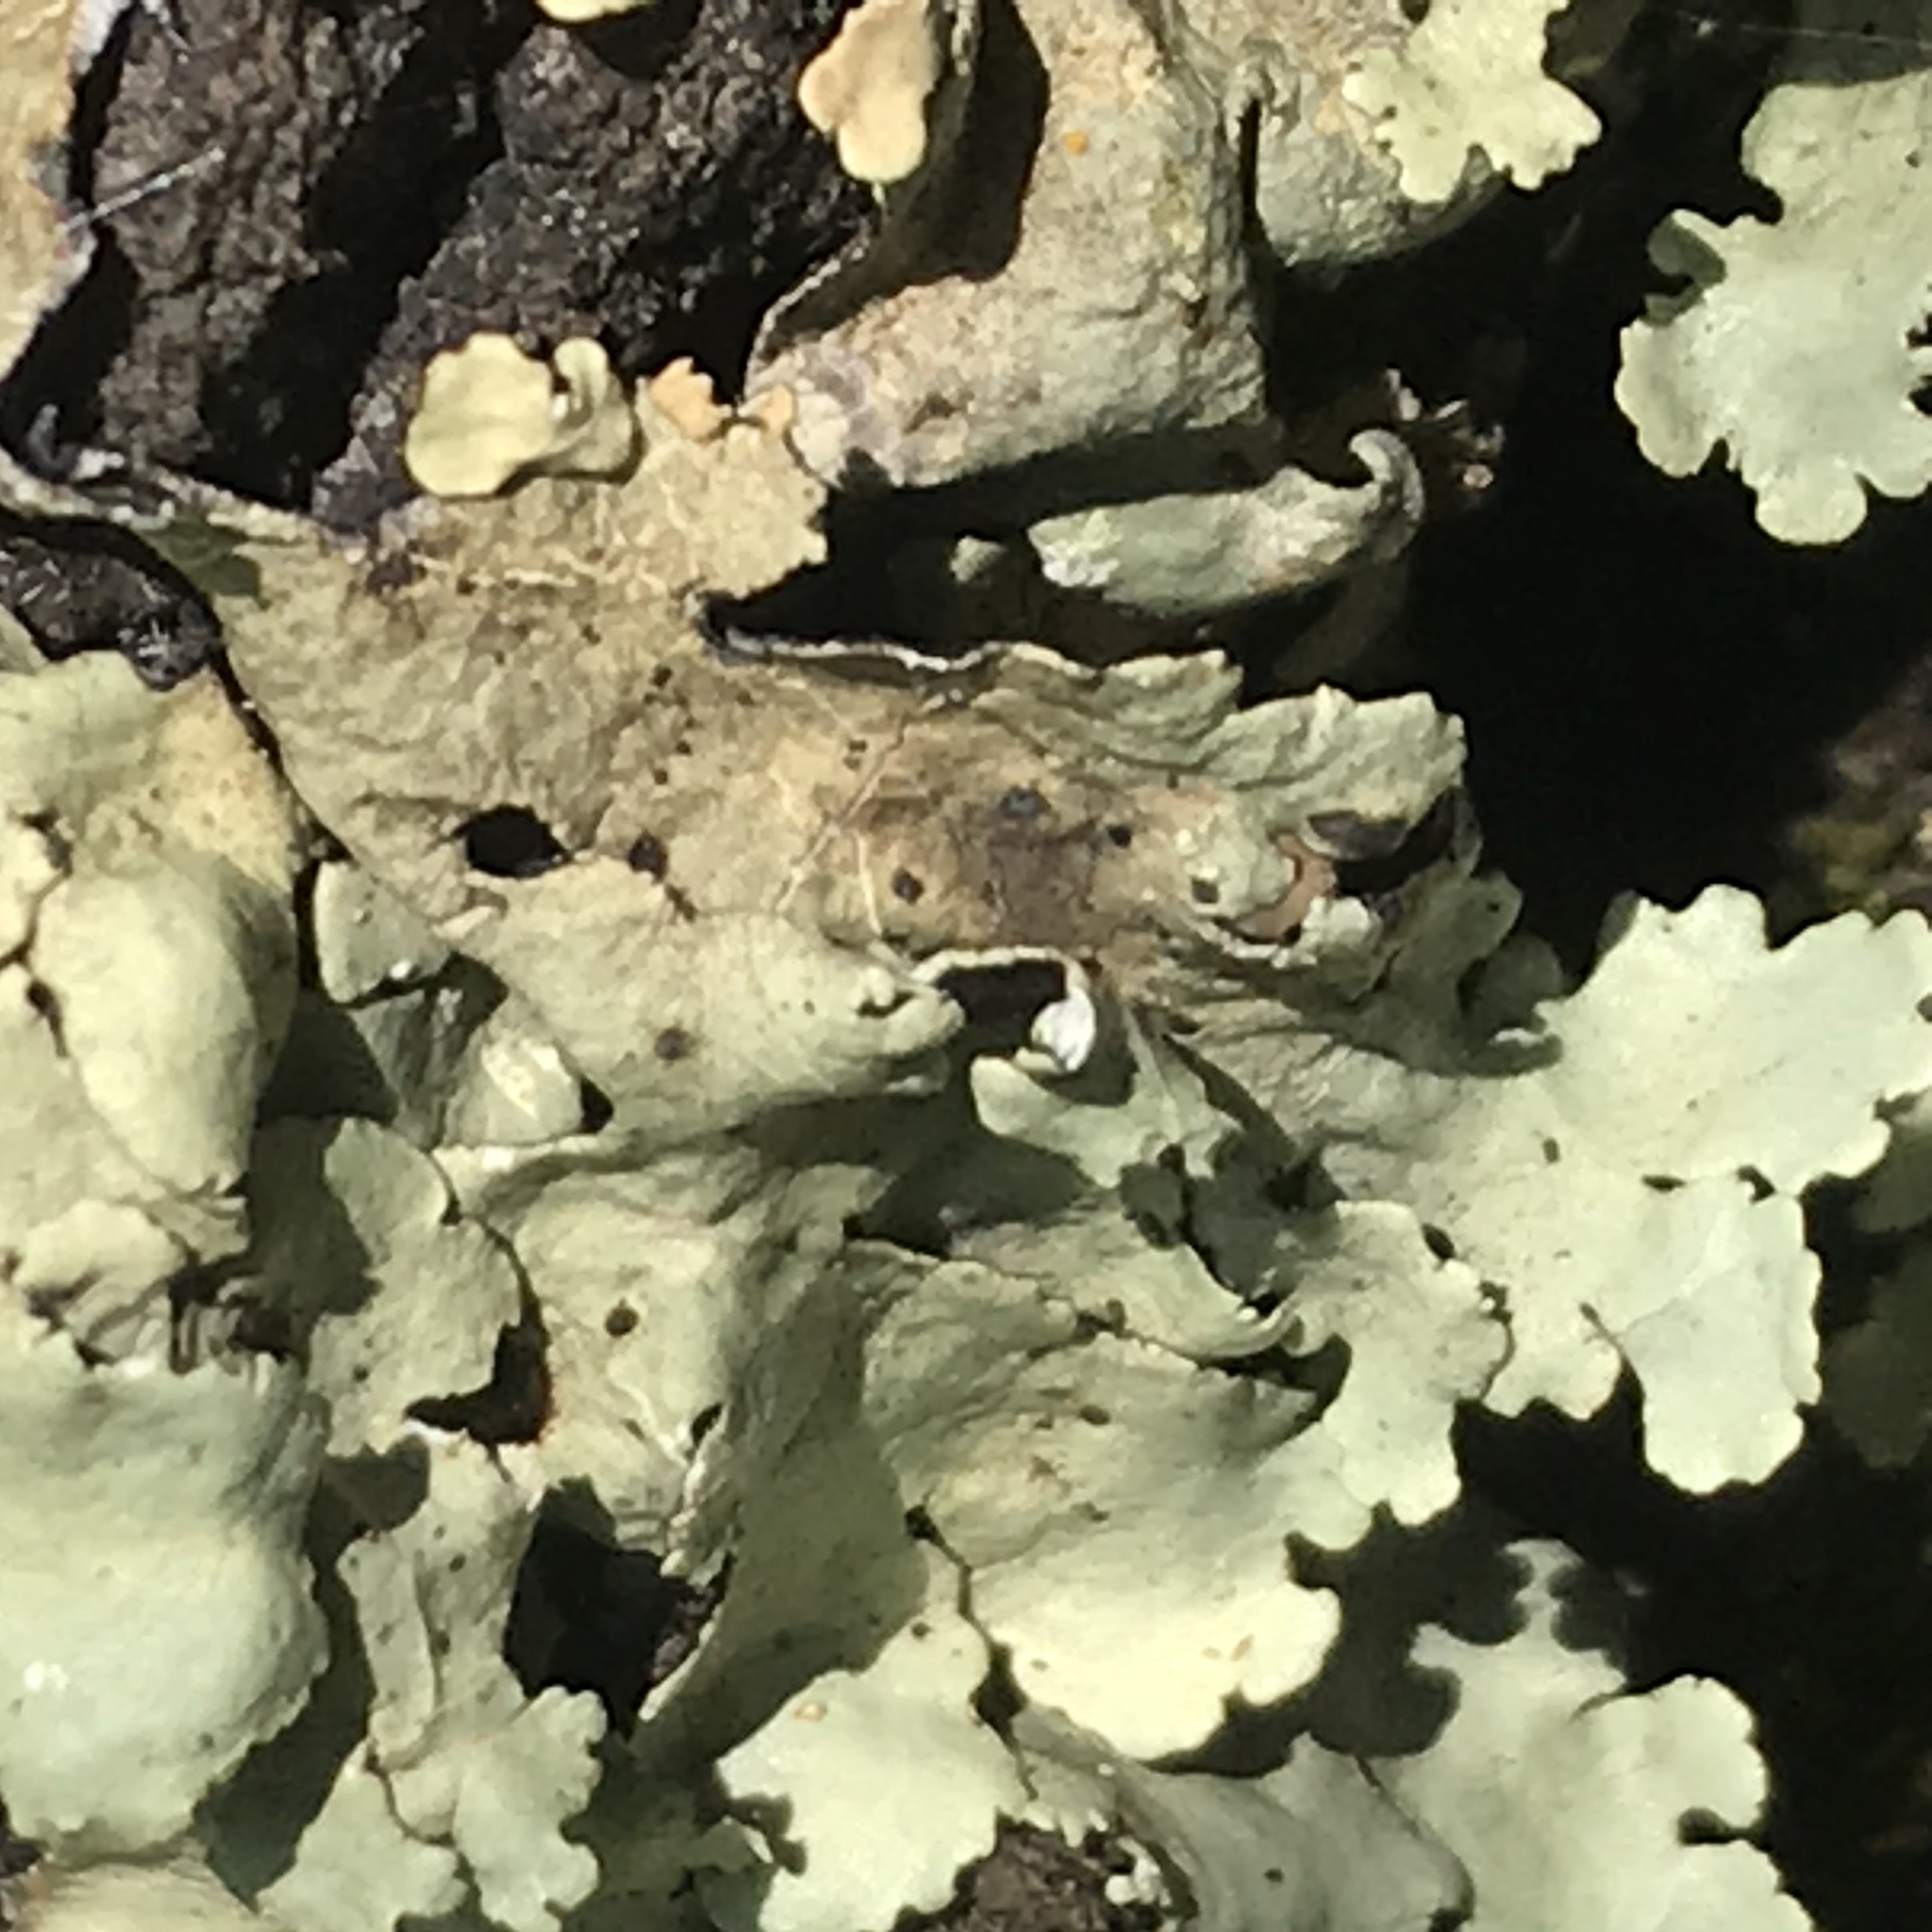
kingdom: Fungi
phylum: Ascomycota
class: Lecanoromycetes
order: Lecanorales
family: Parmeliaceae
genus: Flavoparmelia
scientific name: Flavoparmelia caperata
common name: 40-mile per hour lichen
